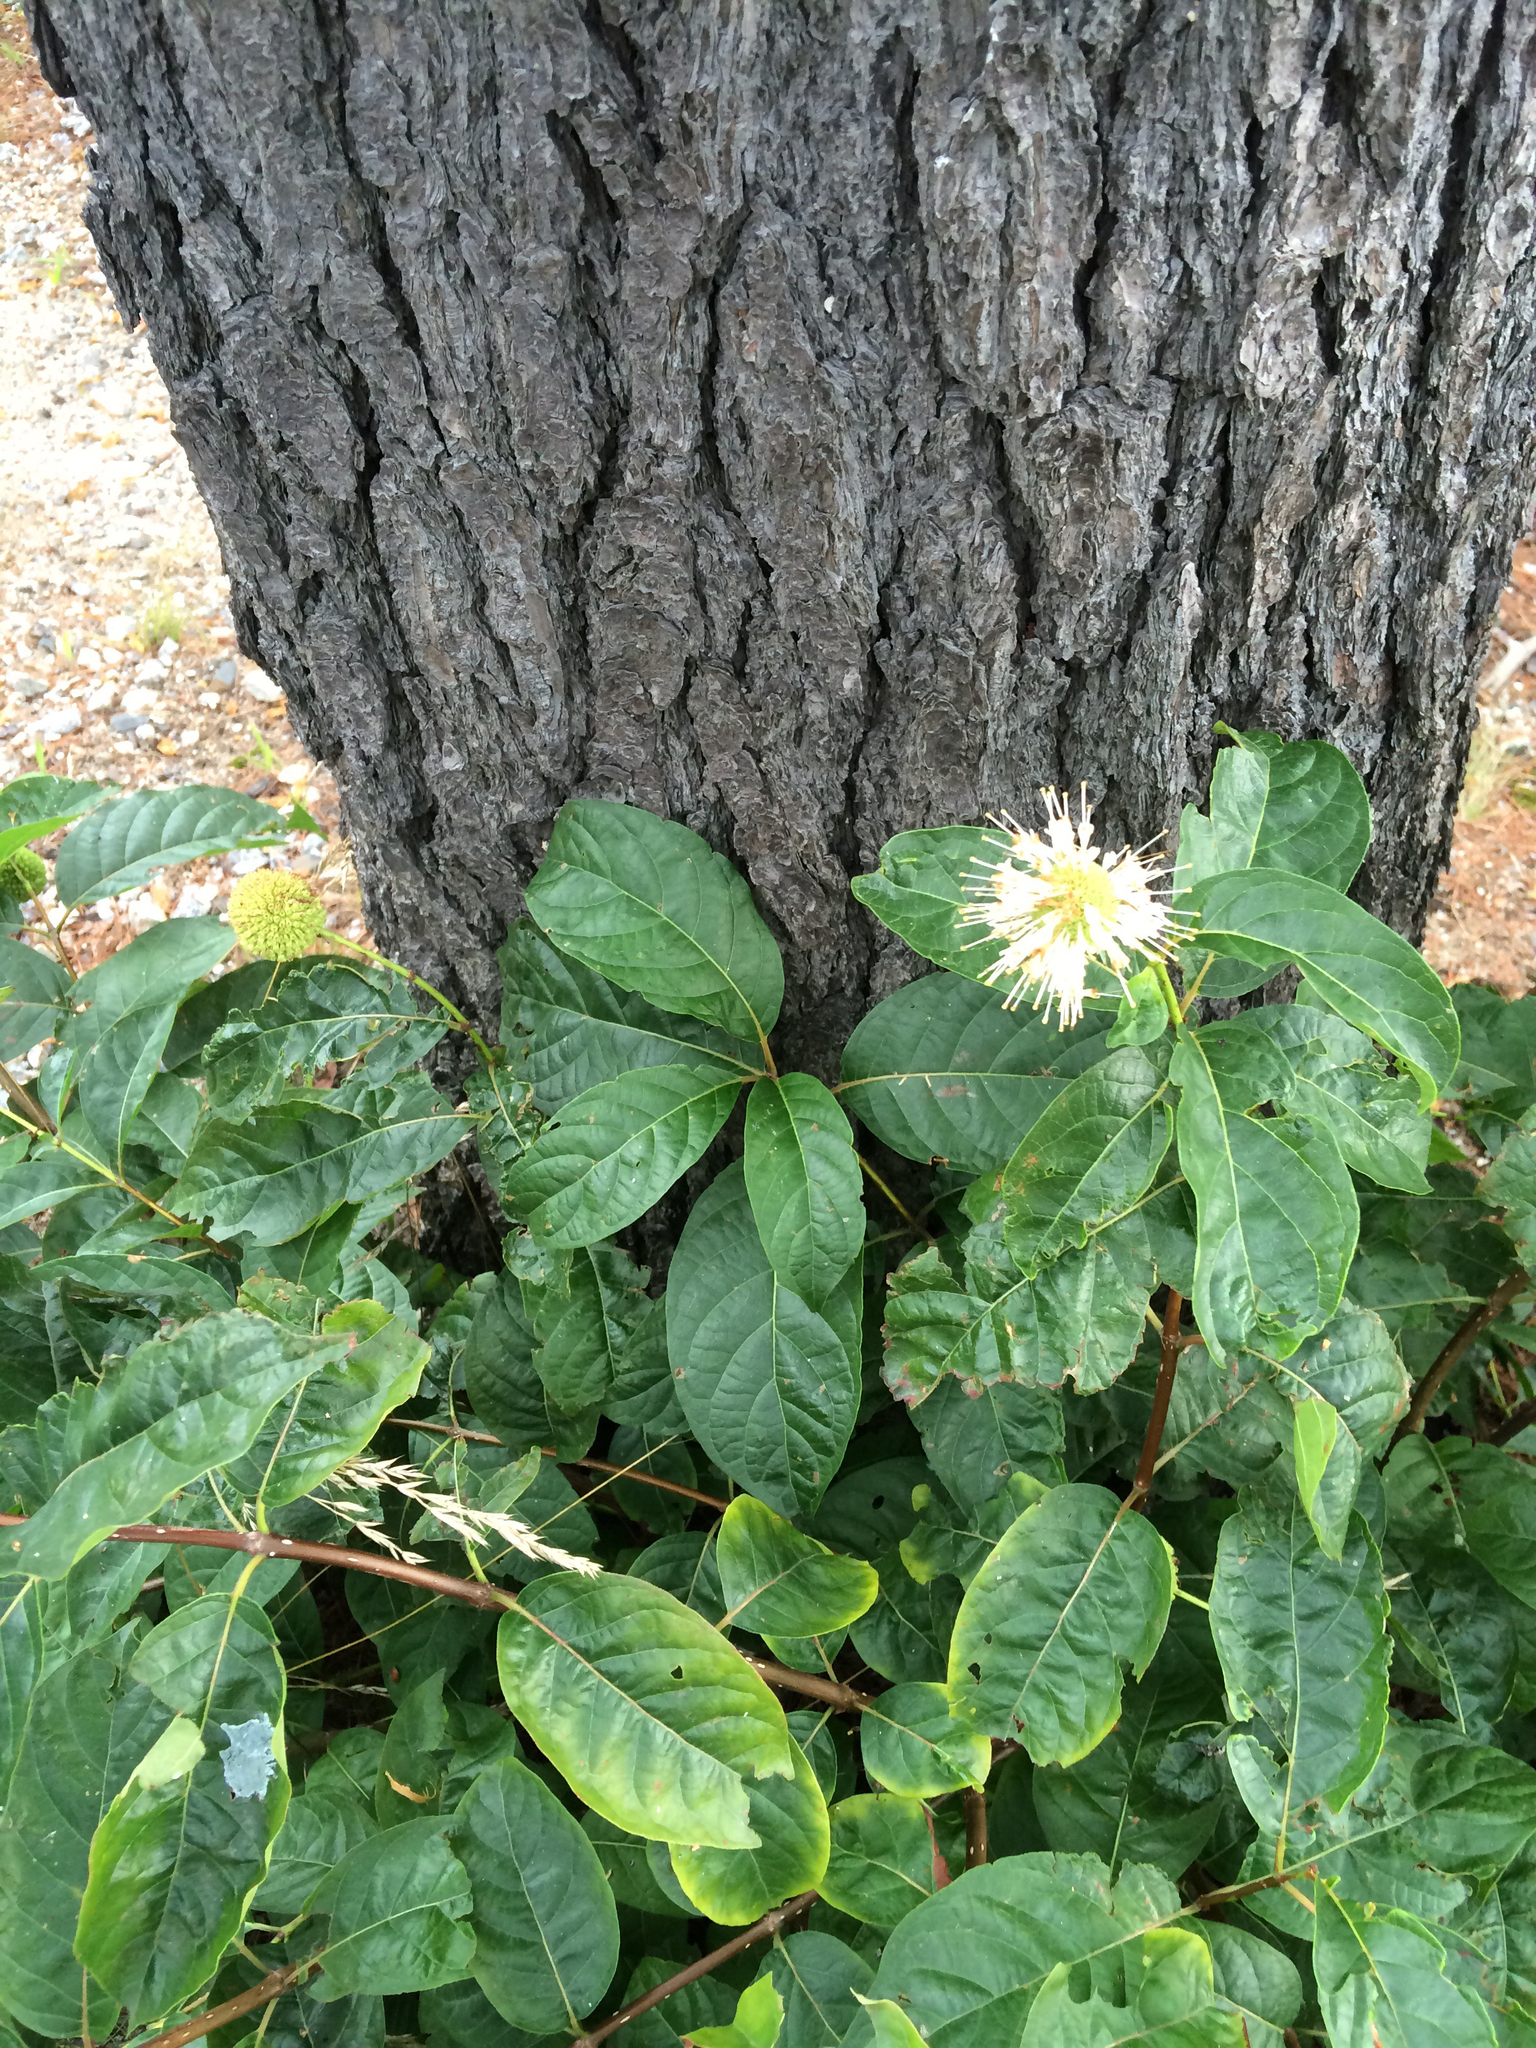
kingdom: Plantae
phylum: Tracheophyta
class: Magnoliopsida
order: Gentianales
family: Rubiaceae
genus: Cephalanthus
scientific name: Cephalanthus occidentalis
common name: Button-willow
